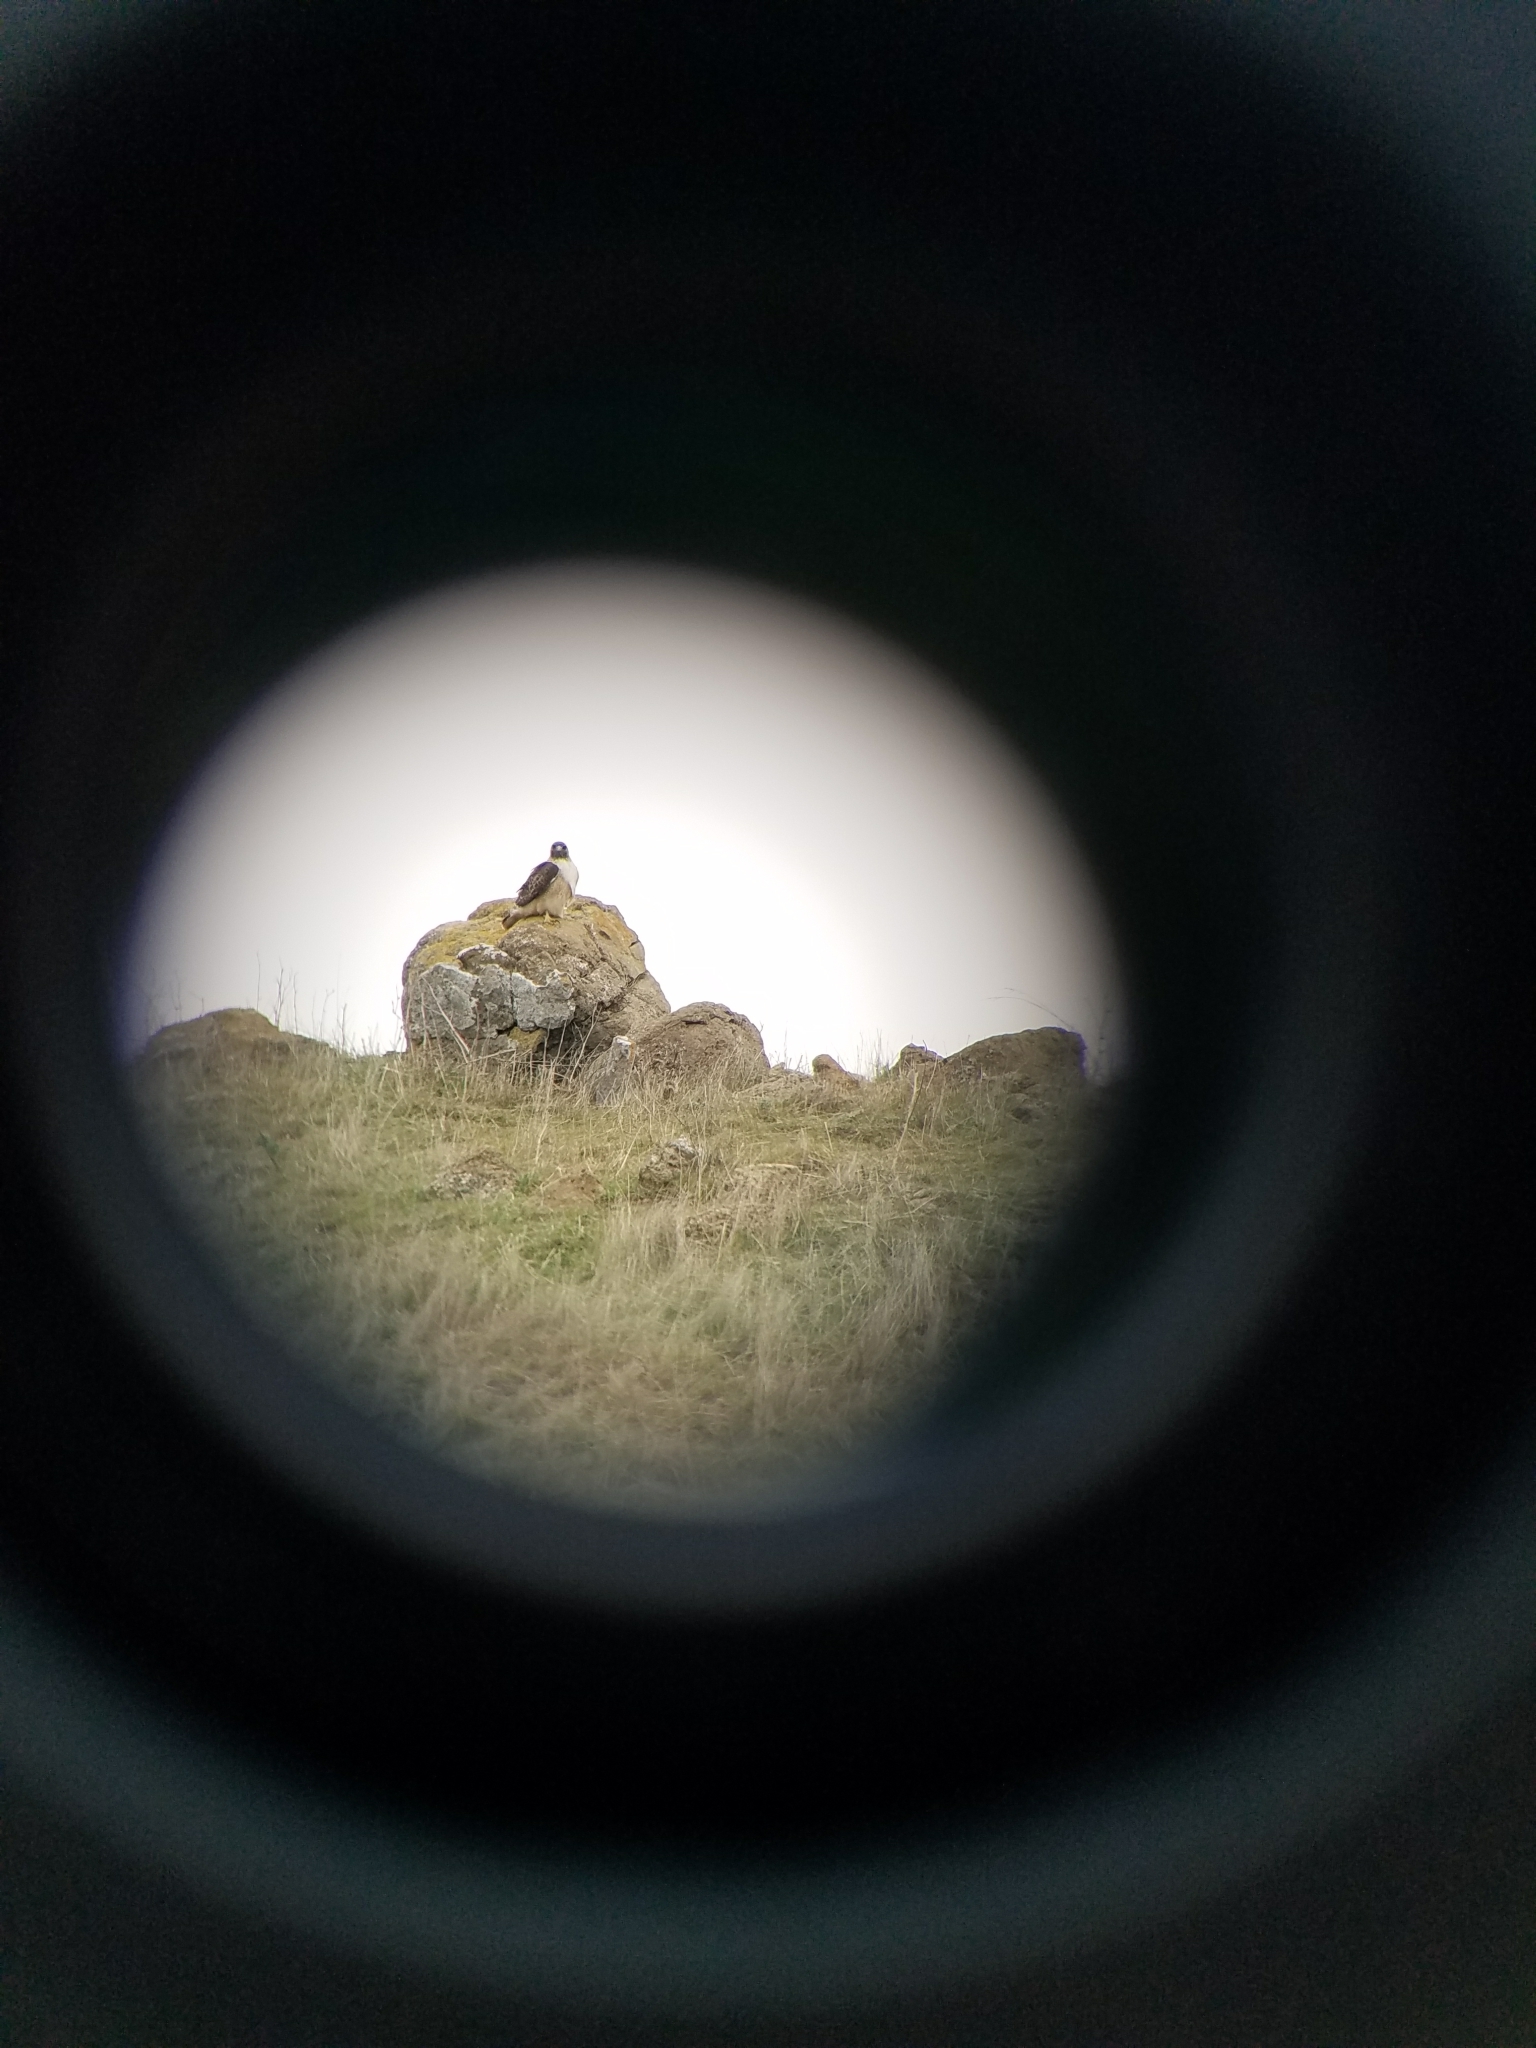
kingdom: Animalia
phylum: Chordata
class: Aves
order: Accipitriformes
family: Accipitridae
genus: Buteo
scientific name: Buteo jamaicensis
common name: Red-tailed hawk
